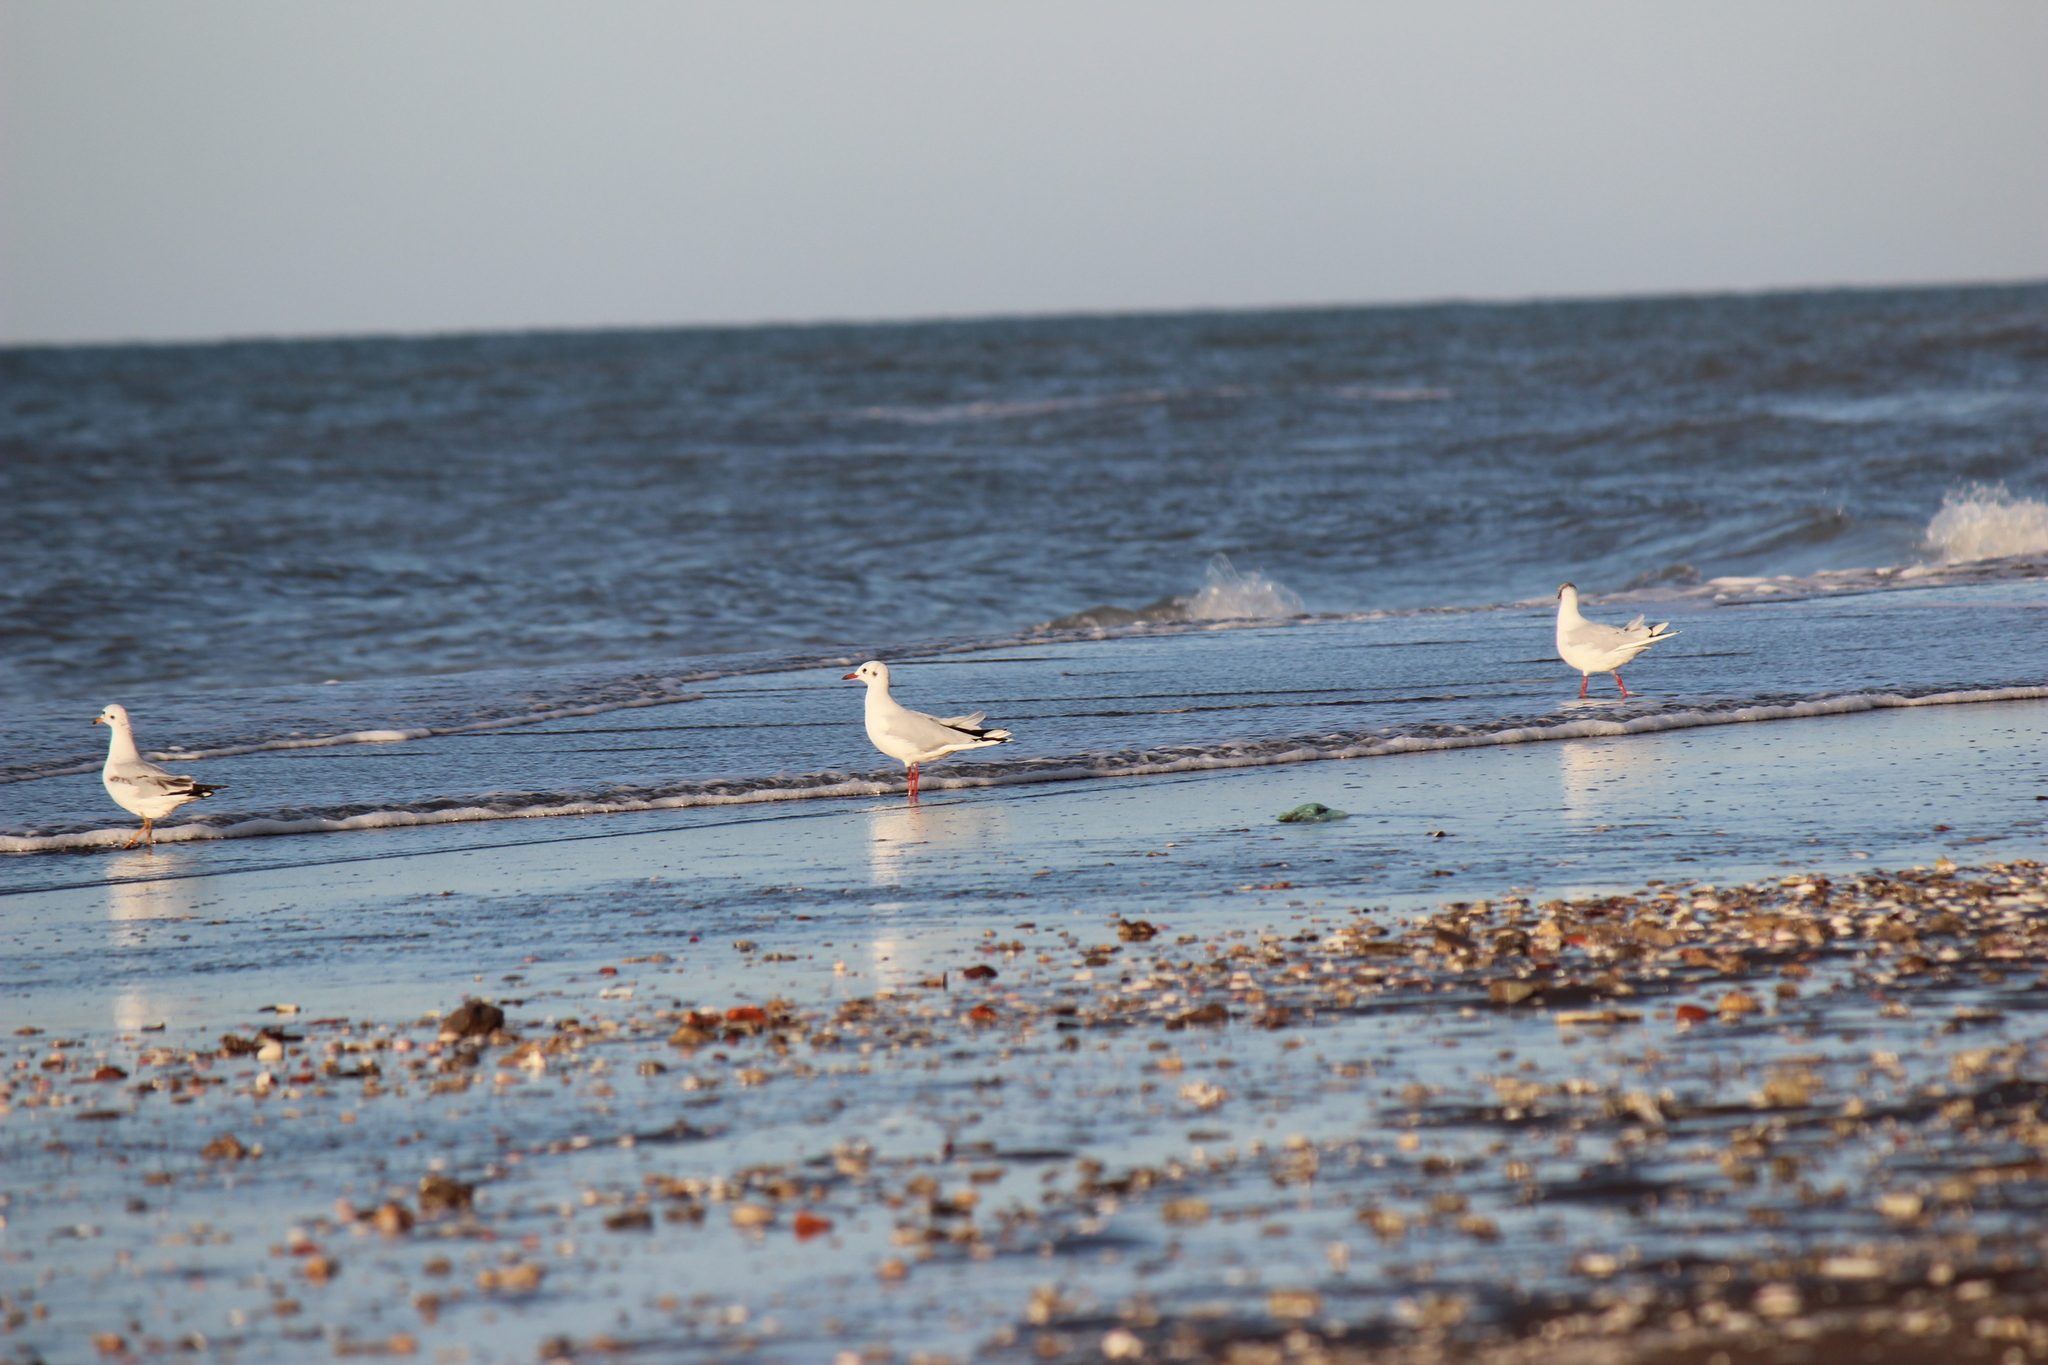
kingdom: Animalia
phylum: Chordata
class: Aves
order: Charadriiformes
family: Laridae
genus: Chroicocephalus
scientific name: Chroicocephalus maculipennis
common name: Brown-hooded gull
